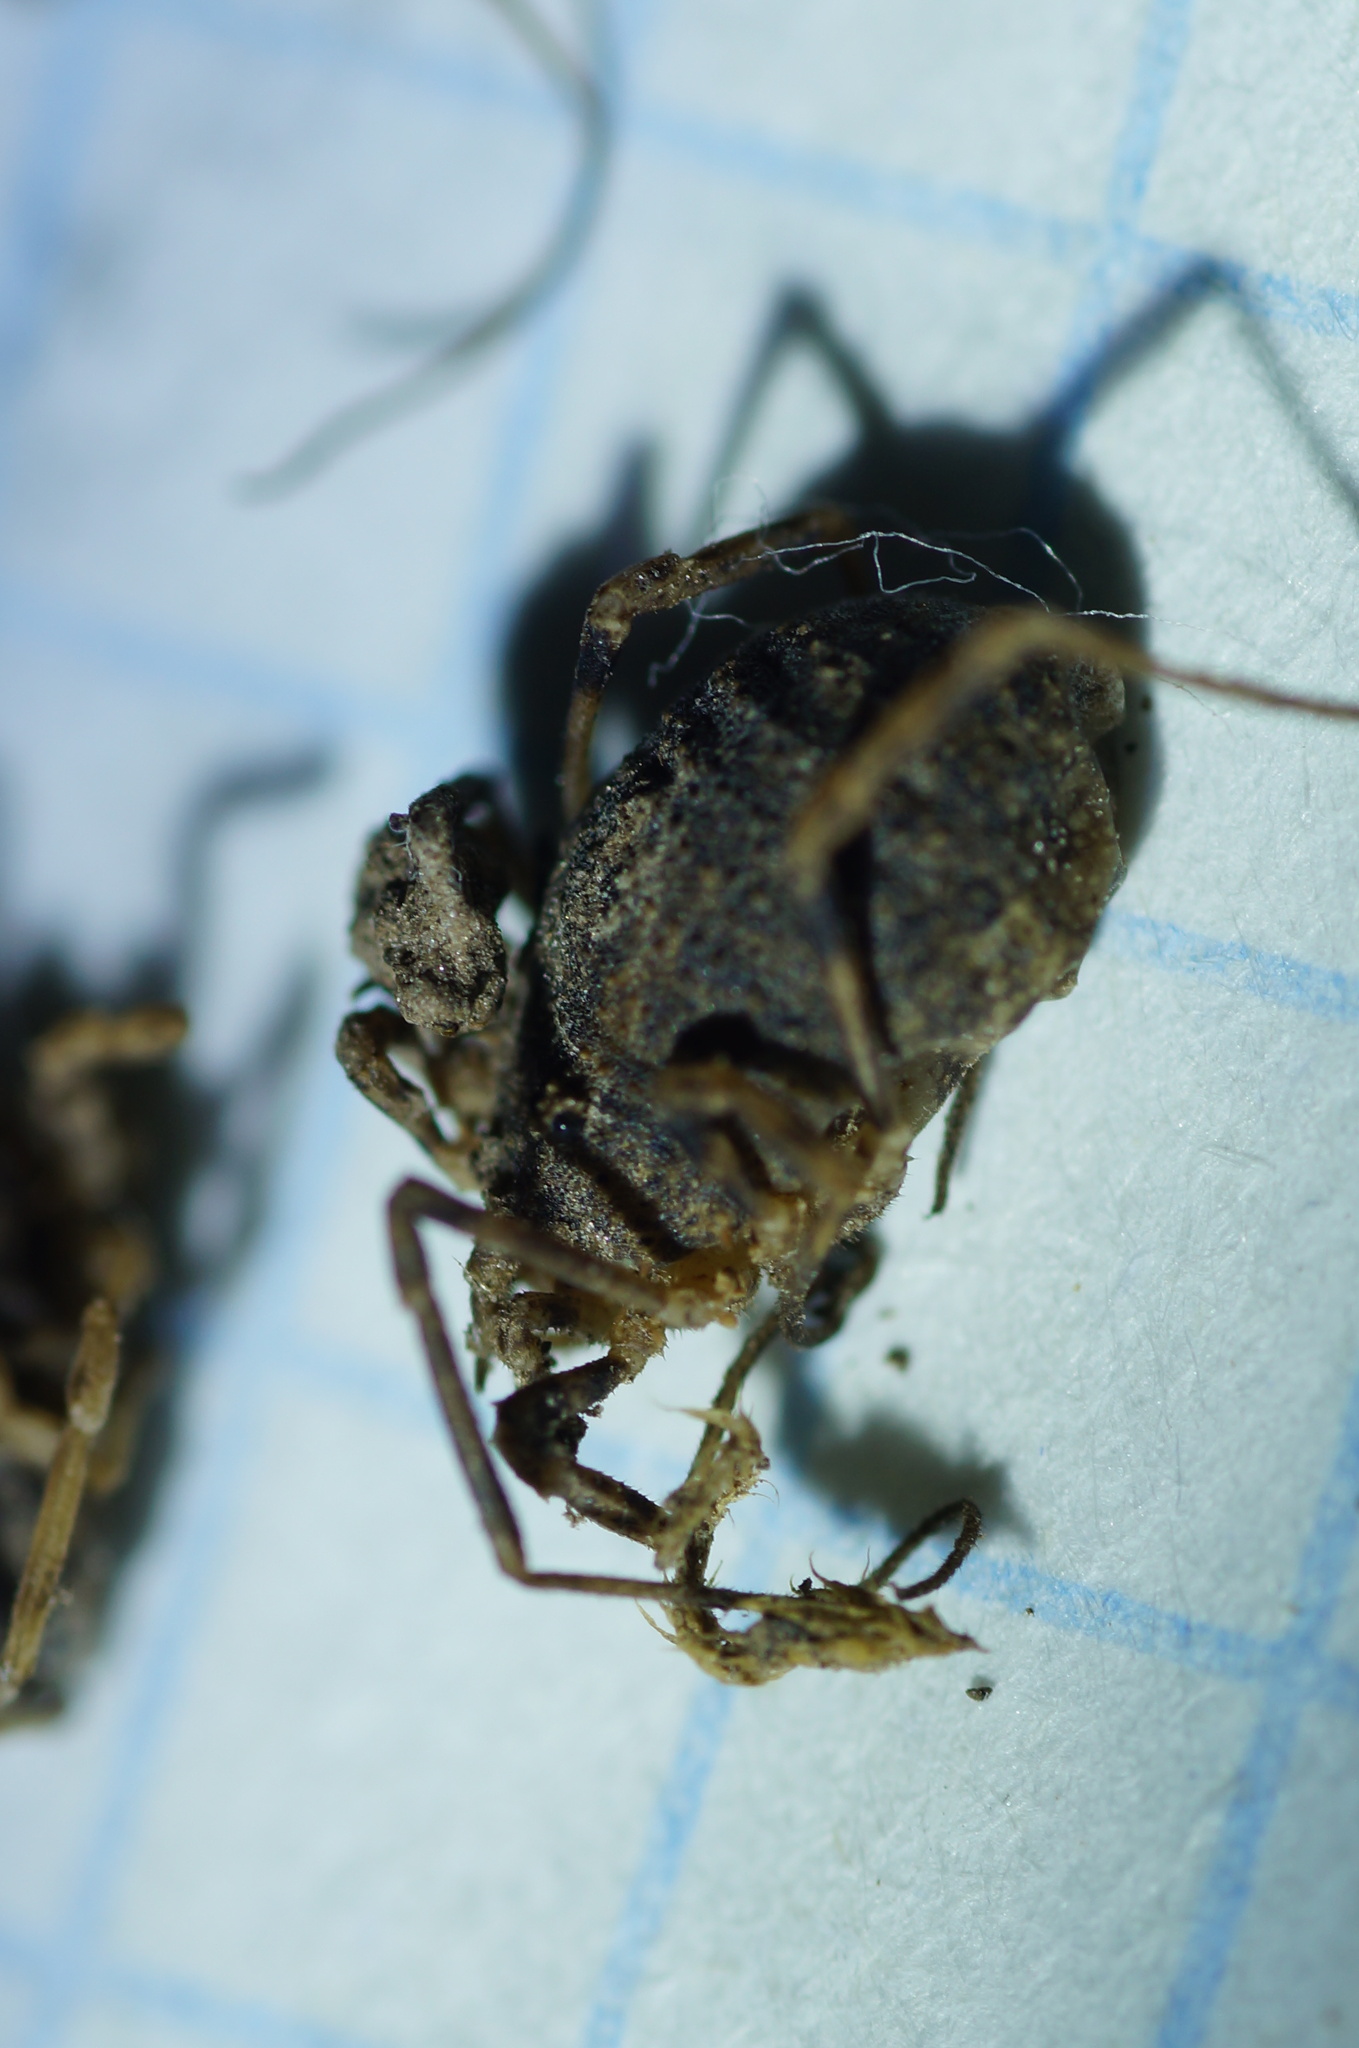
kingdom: Animalia
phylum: Arthropoda
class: Arachnida
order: Opiliones
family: Phalangiidae
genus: Odiellus
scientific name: Odiellus lendlii
